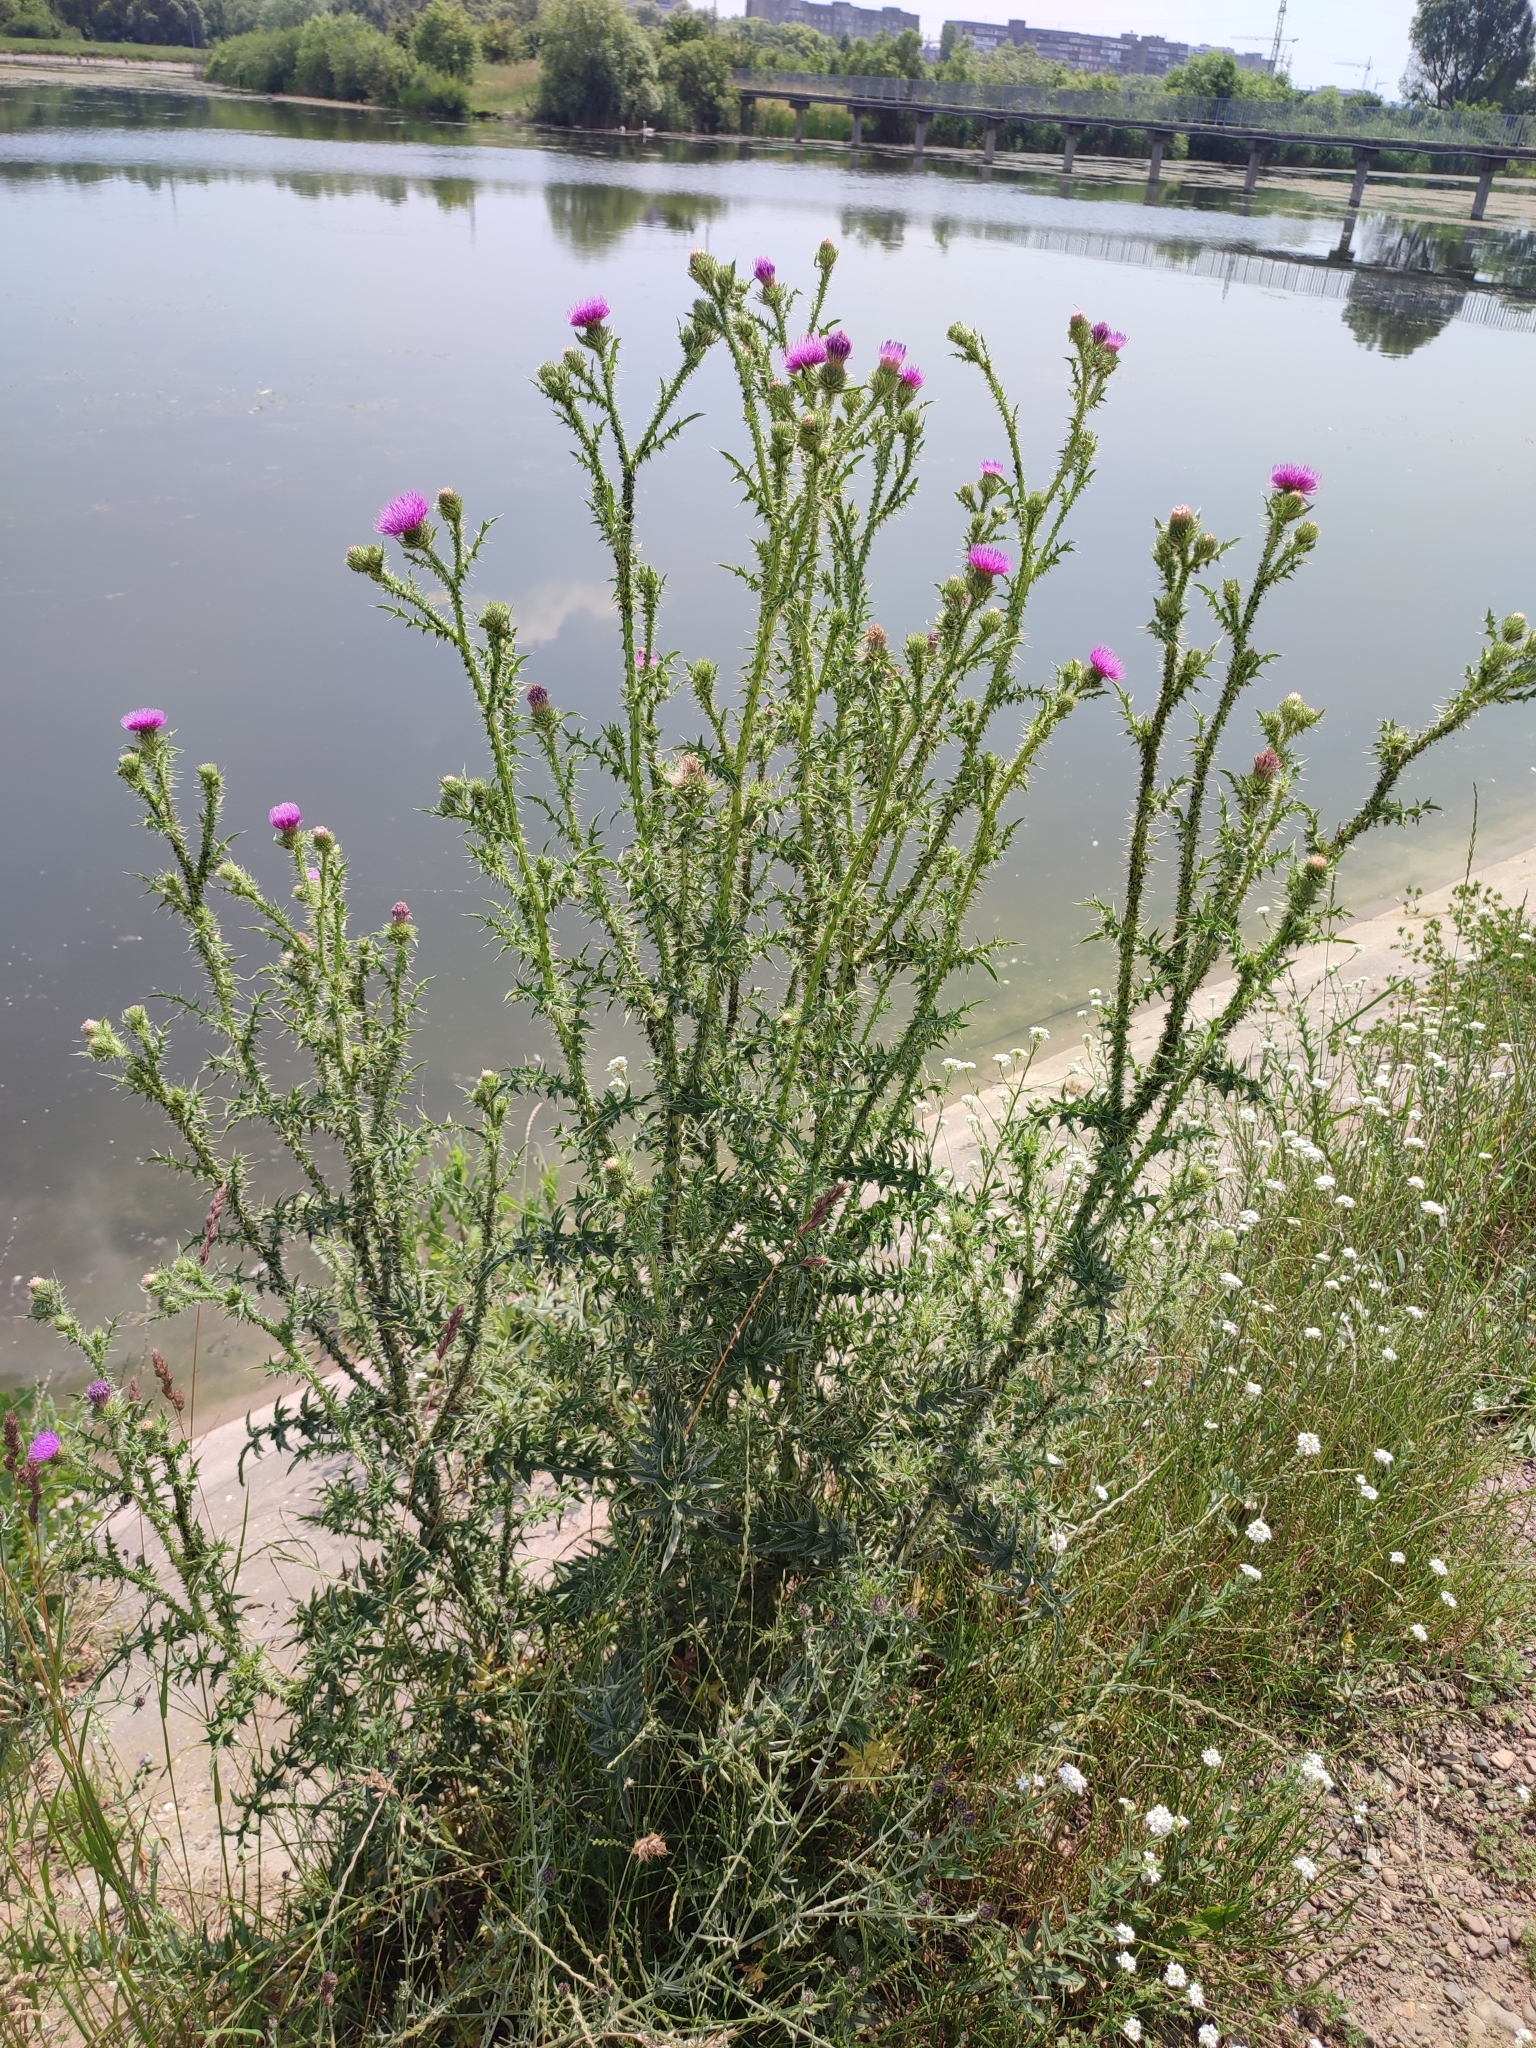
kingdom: Plantae
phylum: Tracheophyta
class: Magnoliopsida
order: Asterales
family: Asteraceae
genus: Carduus
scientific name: Carduus acanthoides
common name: Plumeless thistle
